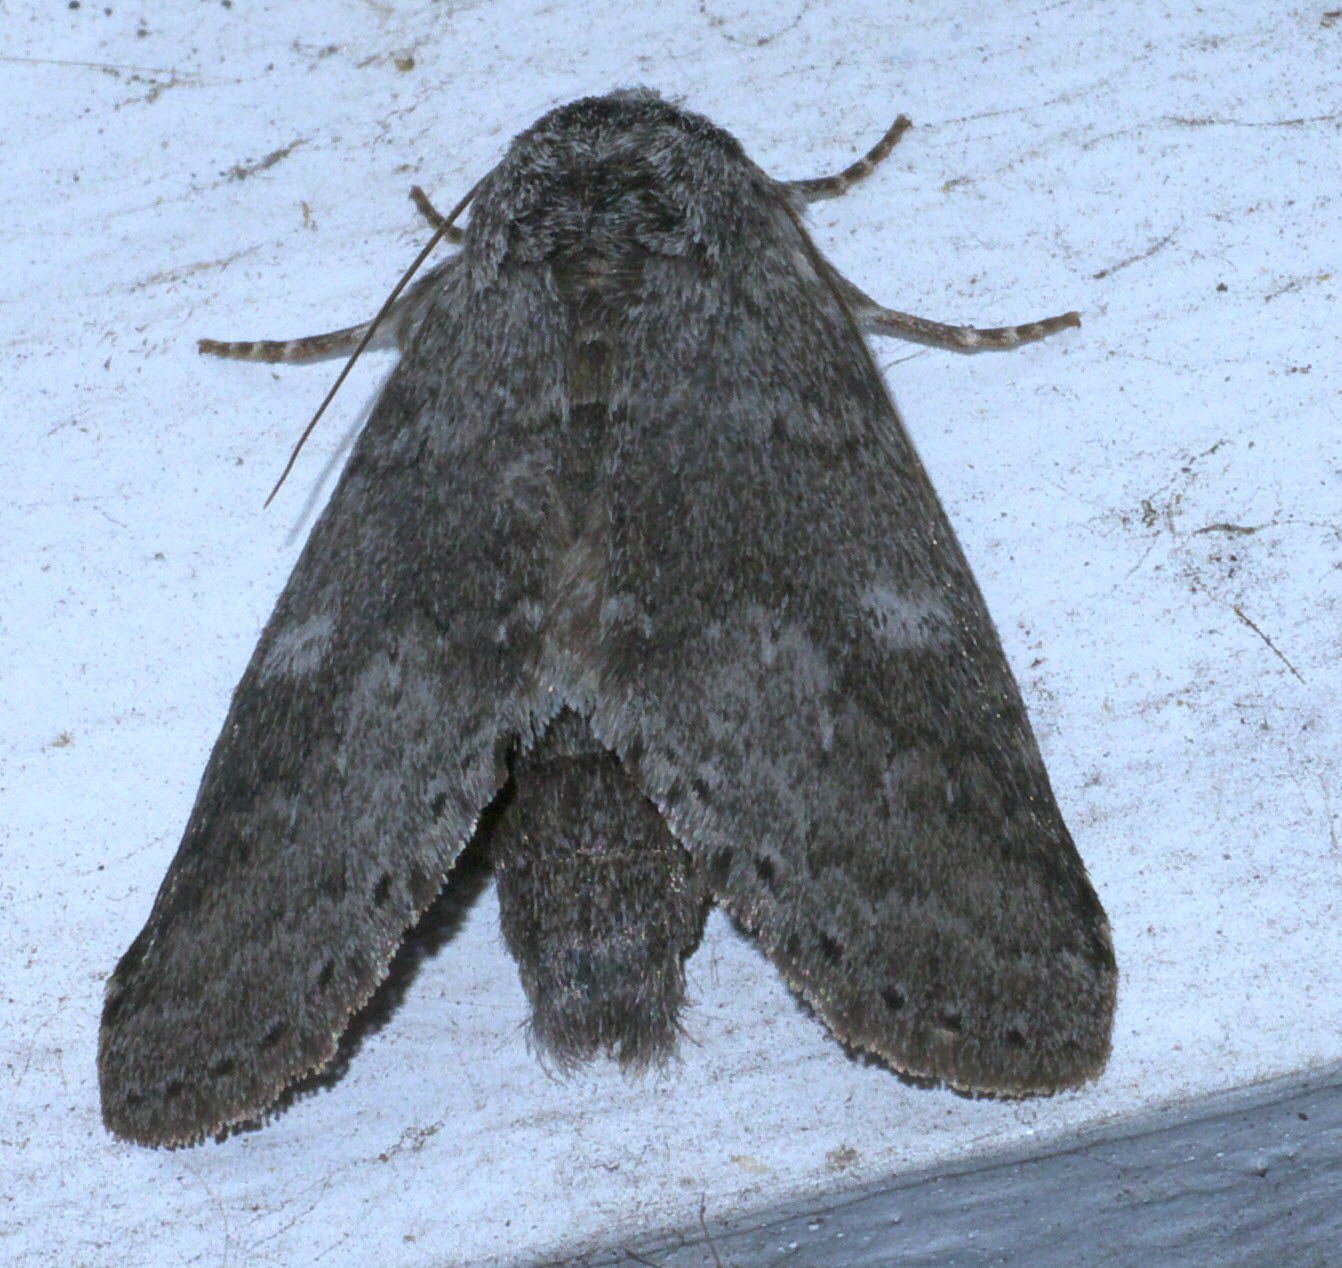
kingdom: Animalia
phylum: Arthropoda
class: Insecta
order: Lepidoptera
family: Notodontidae
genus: Lochmaeus
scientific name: Lochmaeus manteo
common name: Variable oakleaf caterpillar moth
